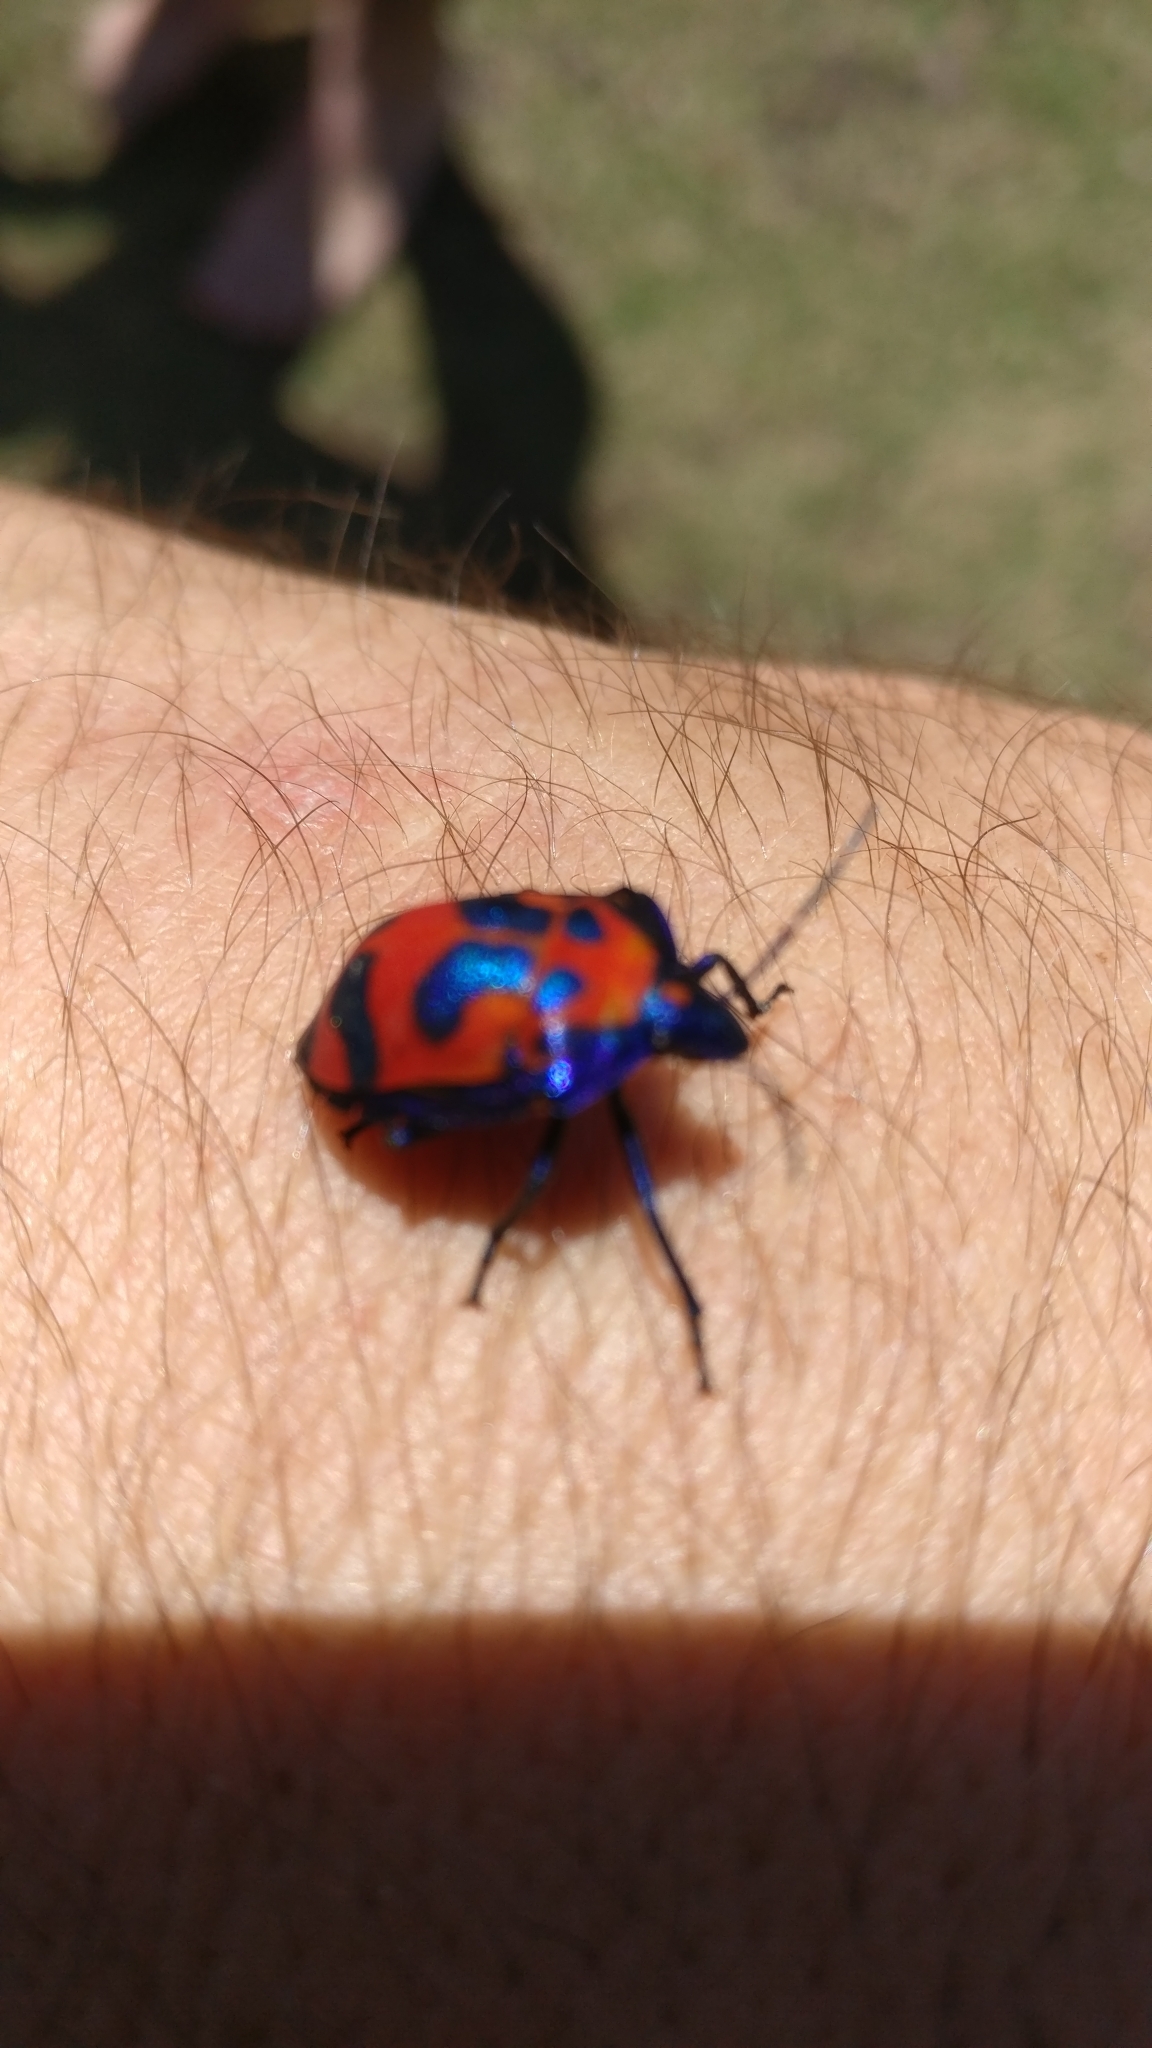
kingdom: Animalia
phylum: Arthropoda
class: Insecta
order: Hemiptera
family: Scutelleridae
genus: Tectocoris
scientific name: Tectocoris diophthalmus
